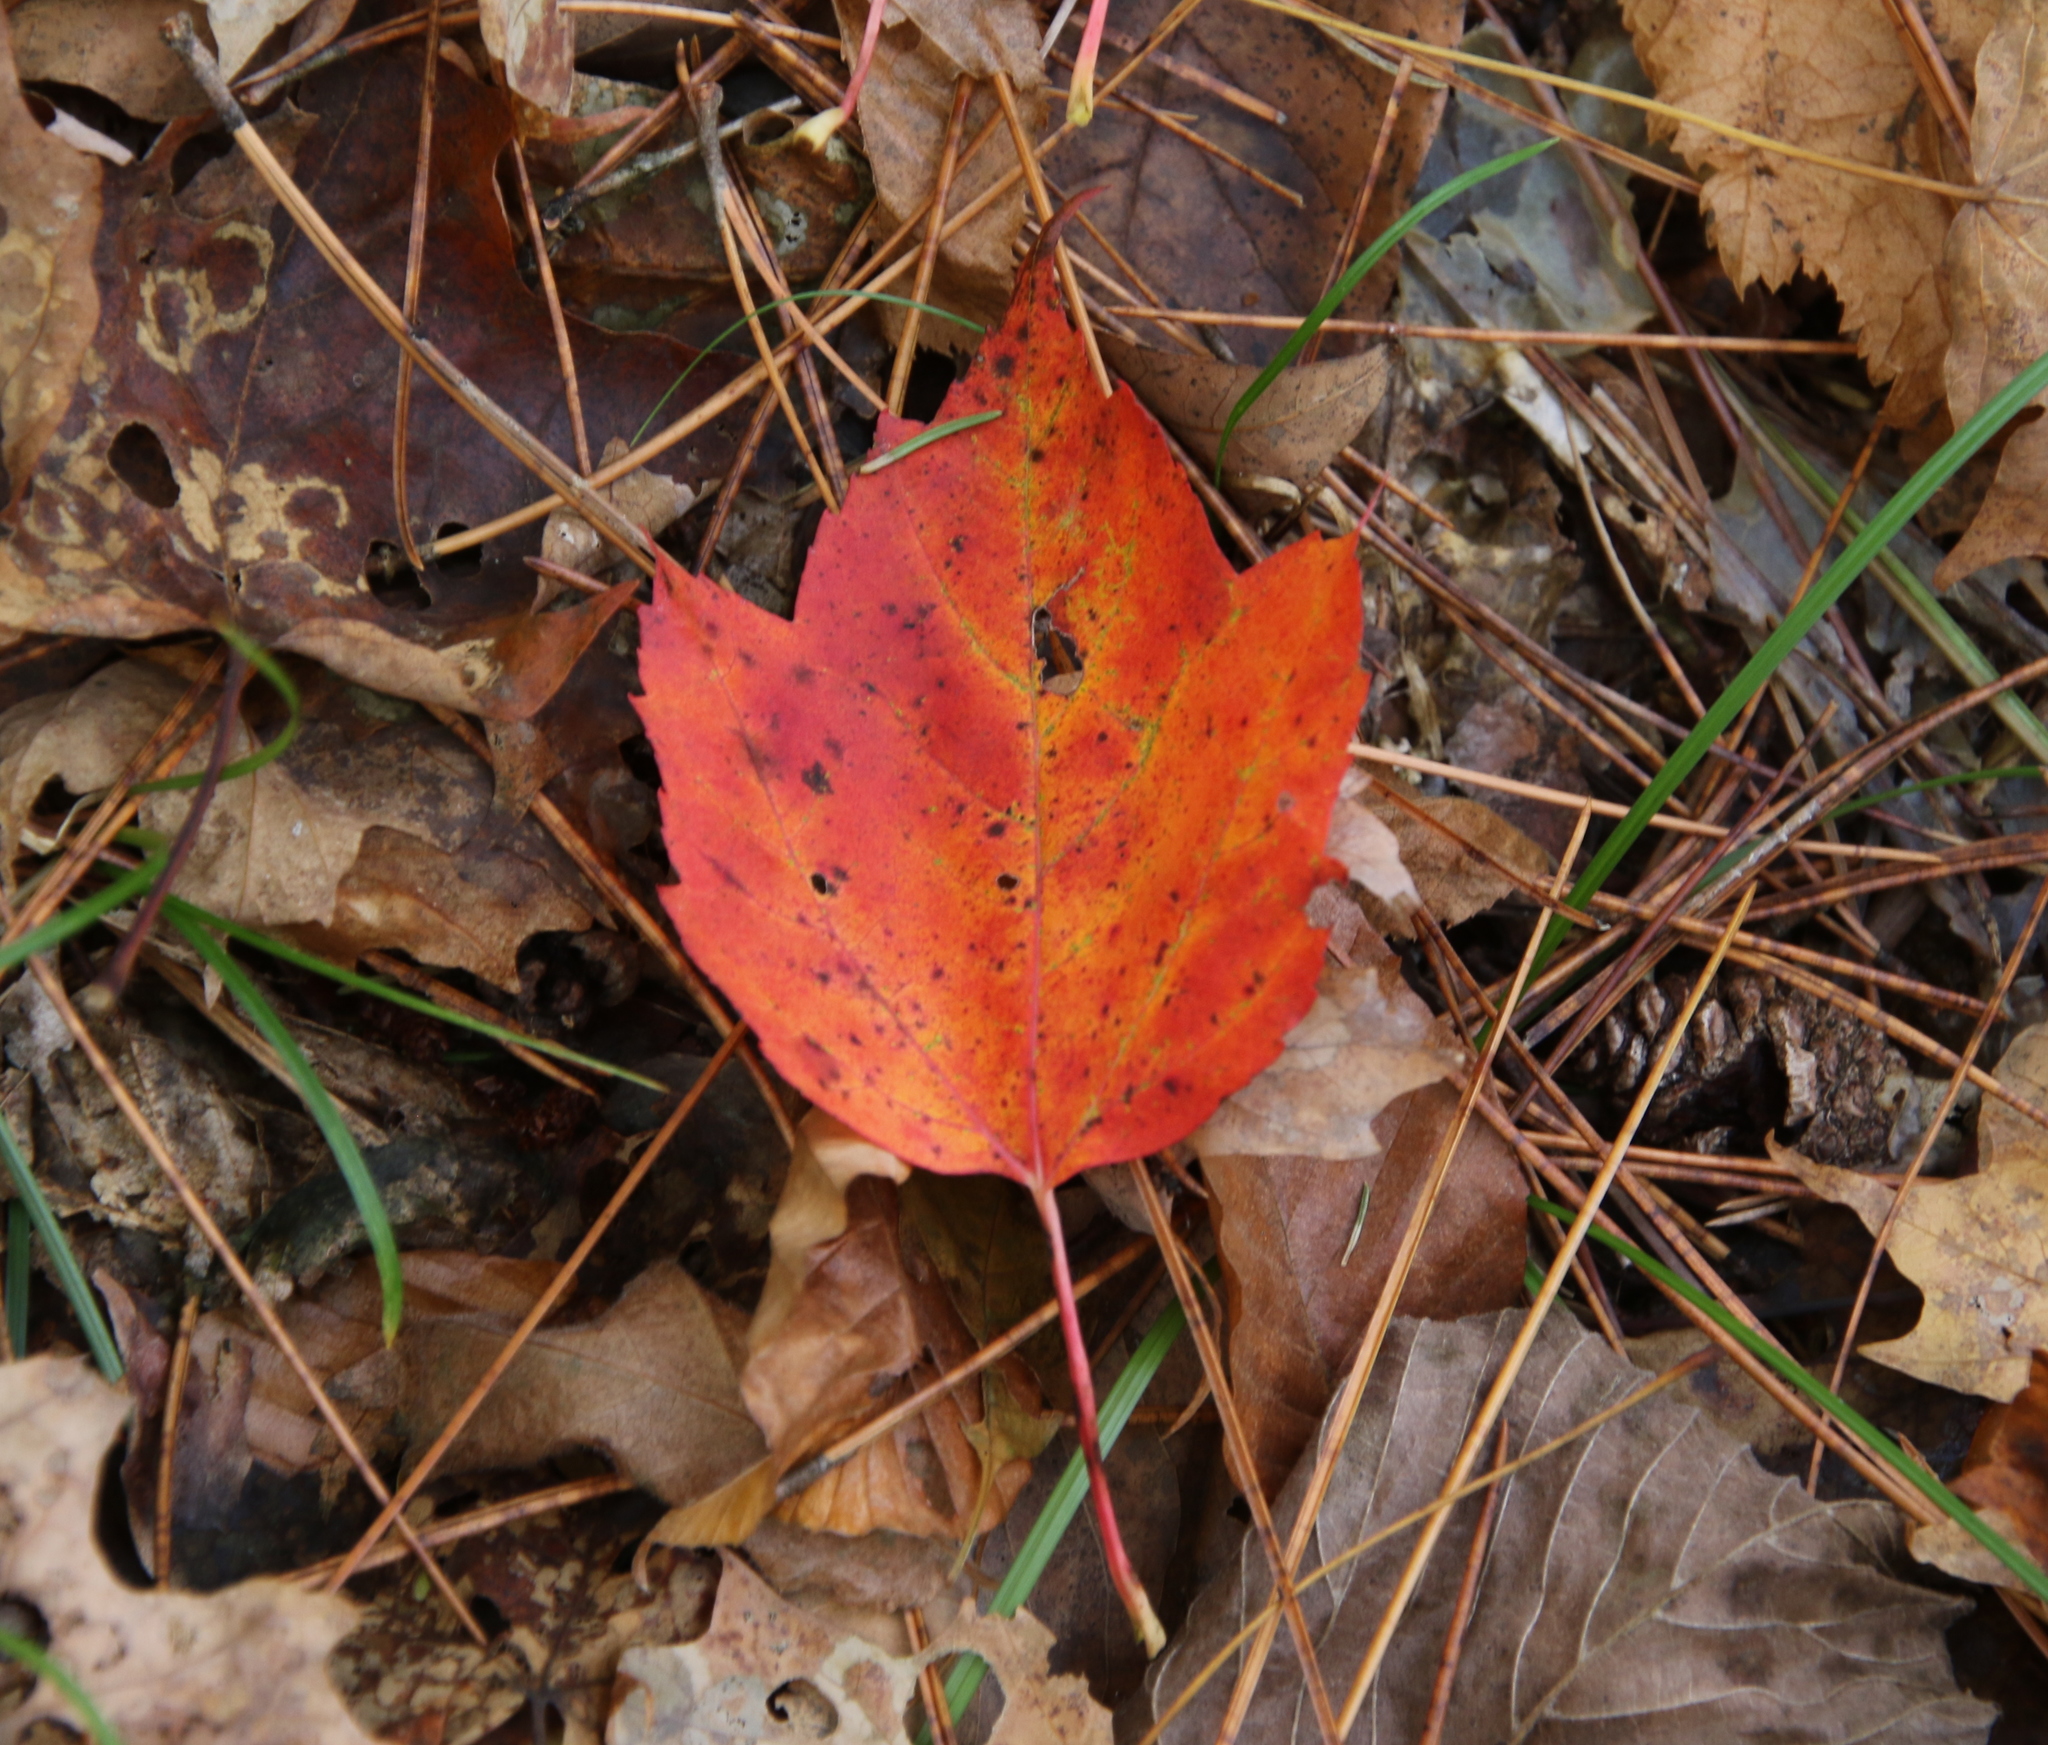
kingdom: Plantae
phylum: Tracheophyta
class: Magnoliopsida
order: Sapindales
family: Sapindaceae
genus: Acer
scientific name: Acer rubrum
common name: Red maple
